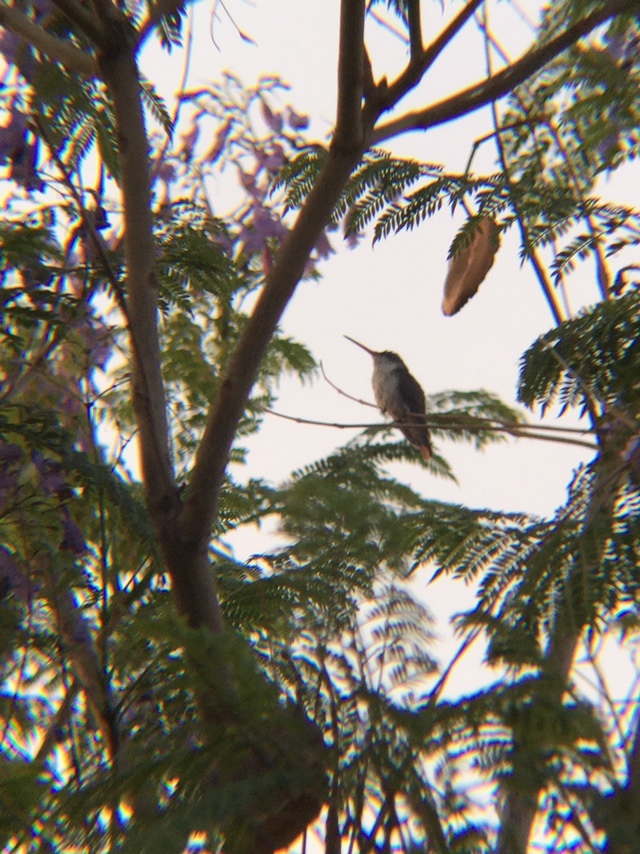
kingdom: Animalia
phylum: Chordata
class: Aves
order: Apodiformes
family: Trochilidae
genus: Leucolia
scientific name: Leucolia violiceps
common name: Violet-crowned hummingbird
